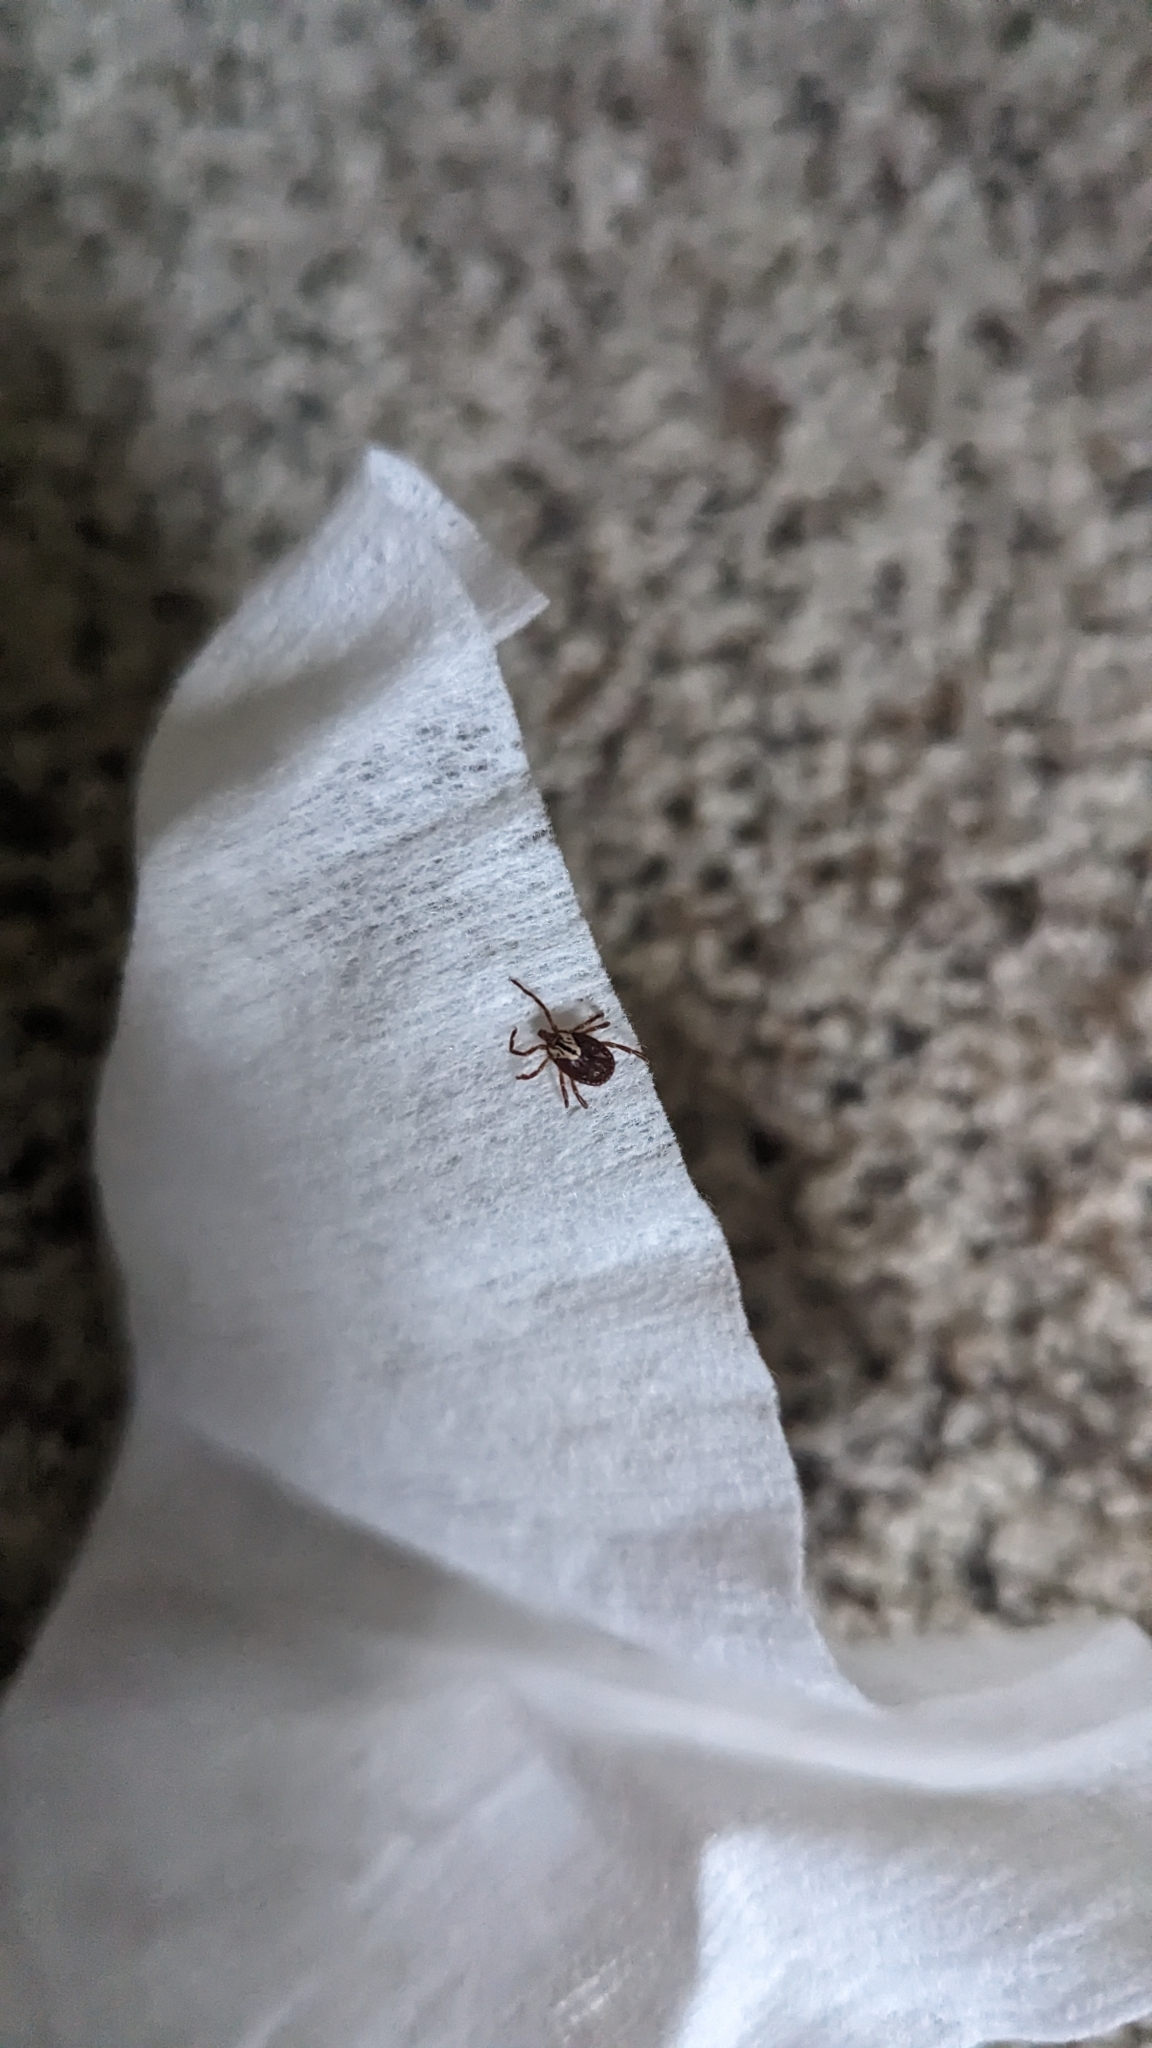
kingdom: Animalia
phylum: Arthropoda
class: Arachnida
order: Ixodida
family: Ixodidae
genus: Amblyomma
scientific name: Amblyomma maculatum
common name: Gulf coast tick
